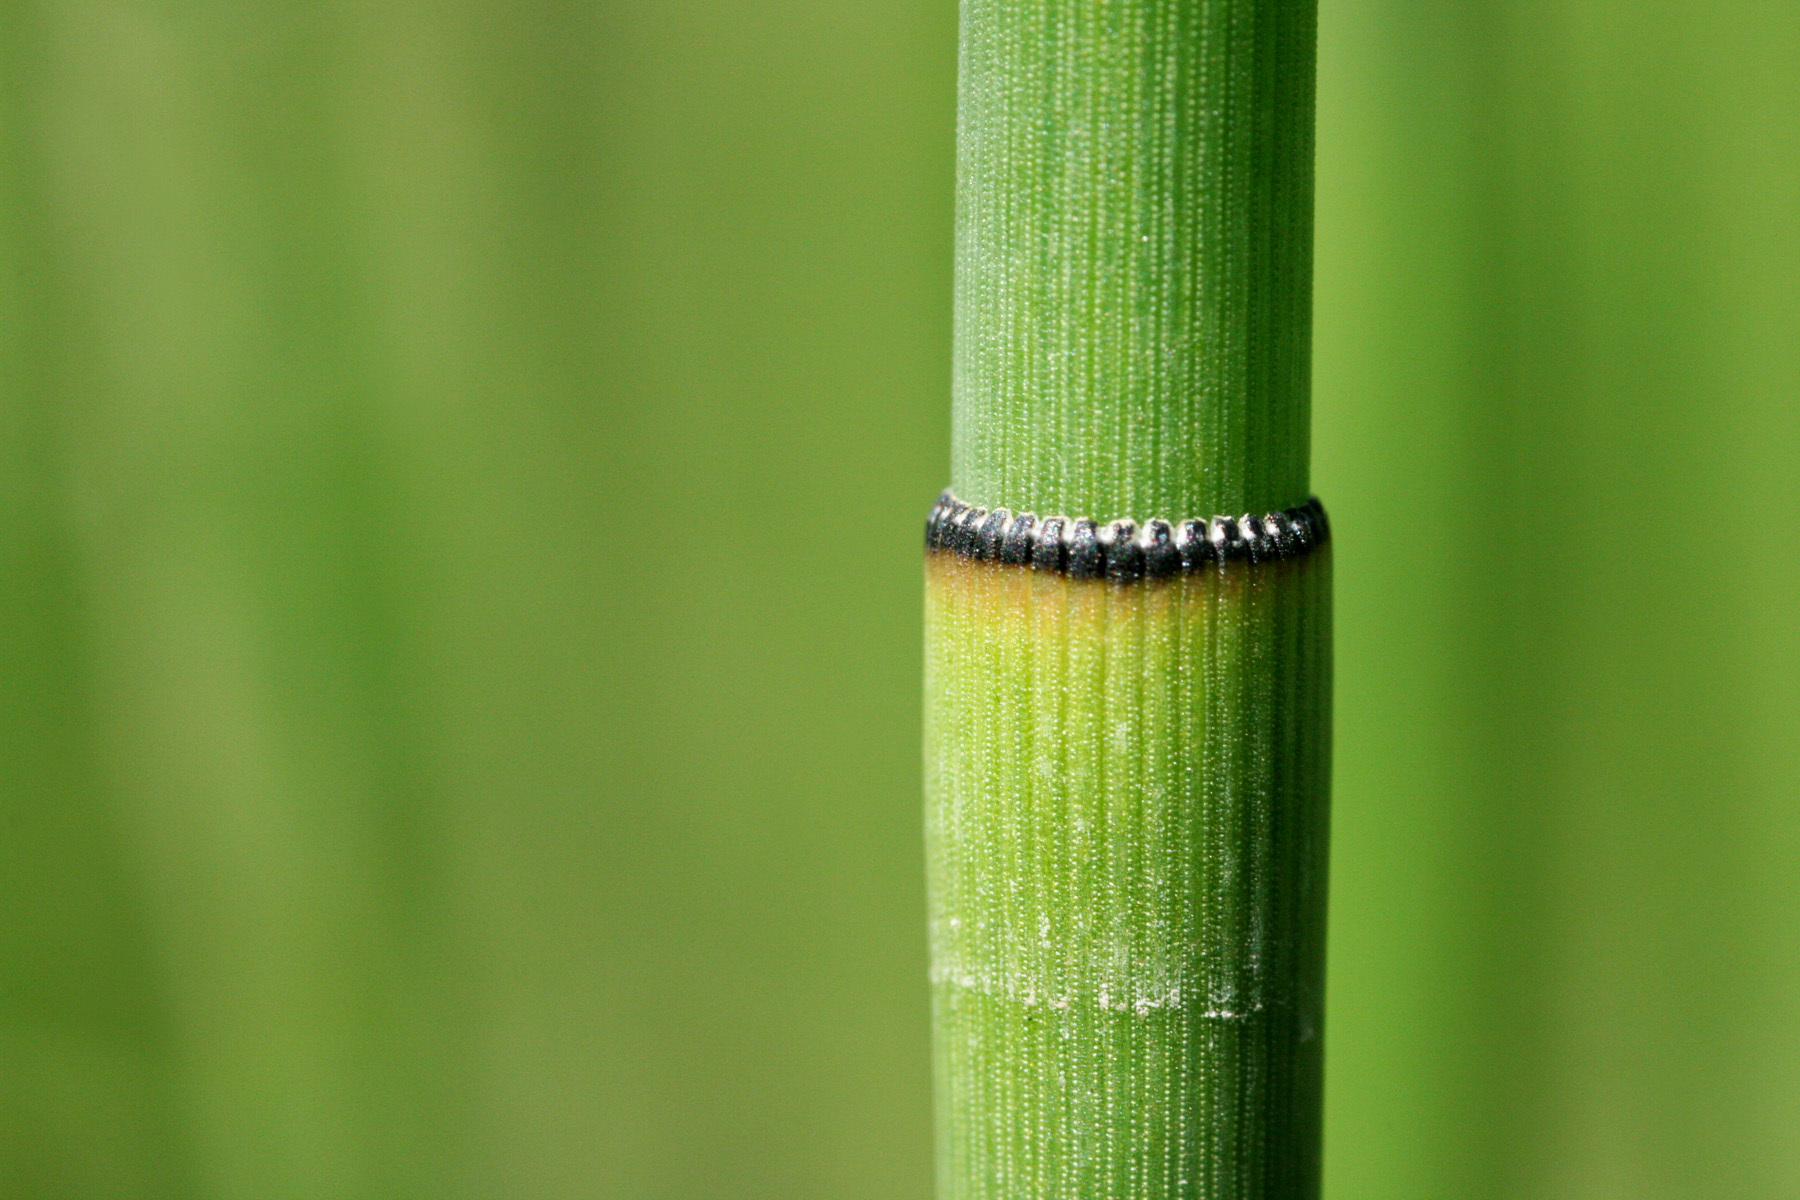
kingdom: Plantae
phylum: Tracheophyta
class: Polypodiopsida
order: Equisetales
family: Equisetaceae
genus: Equisetum
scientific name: Equisetum laevigatum
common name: Smooth scouring-rush
